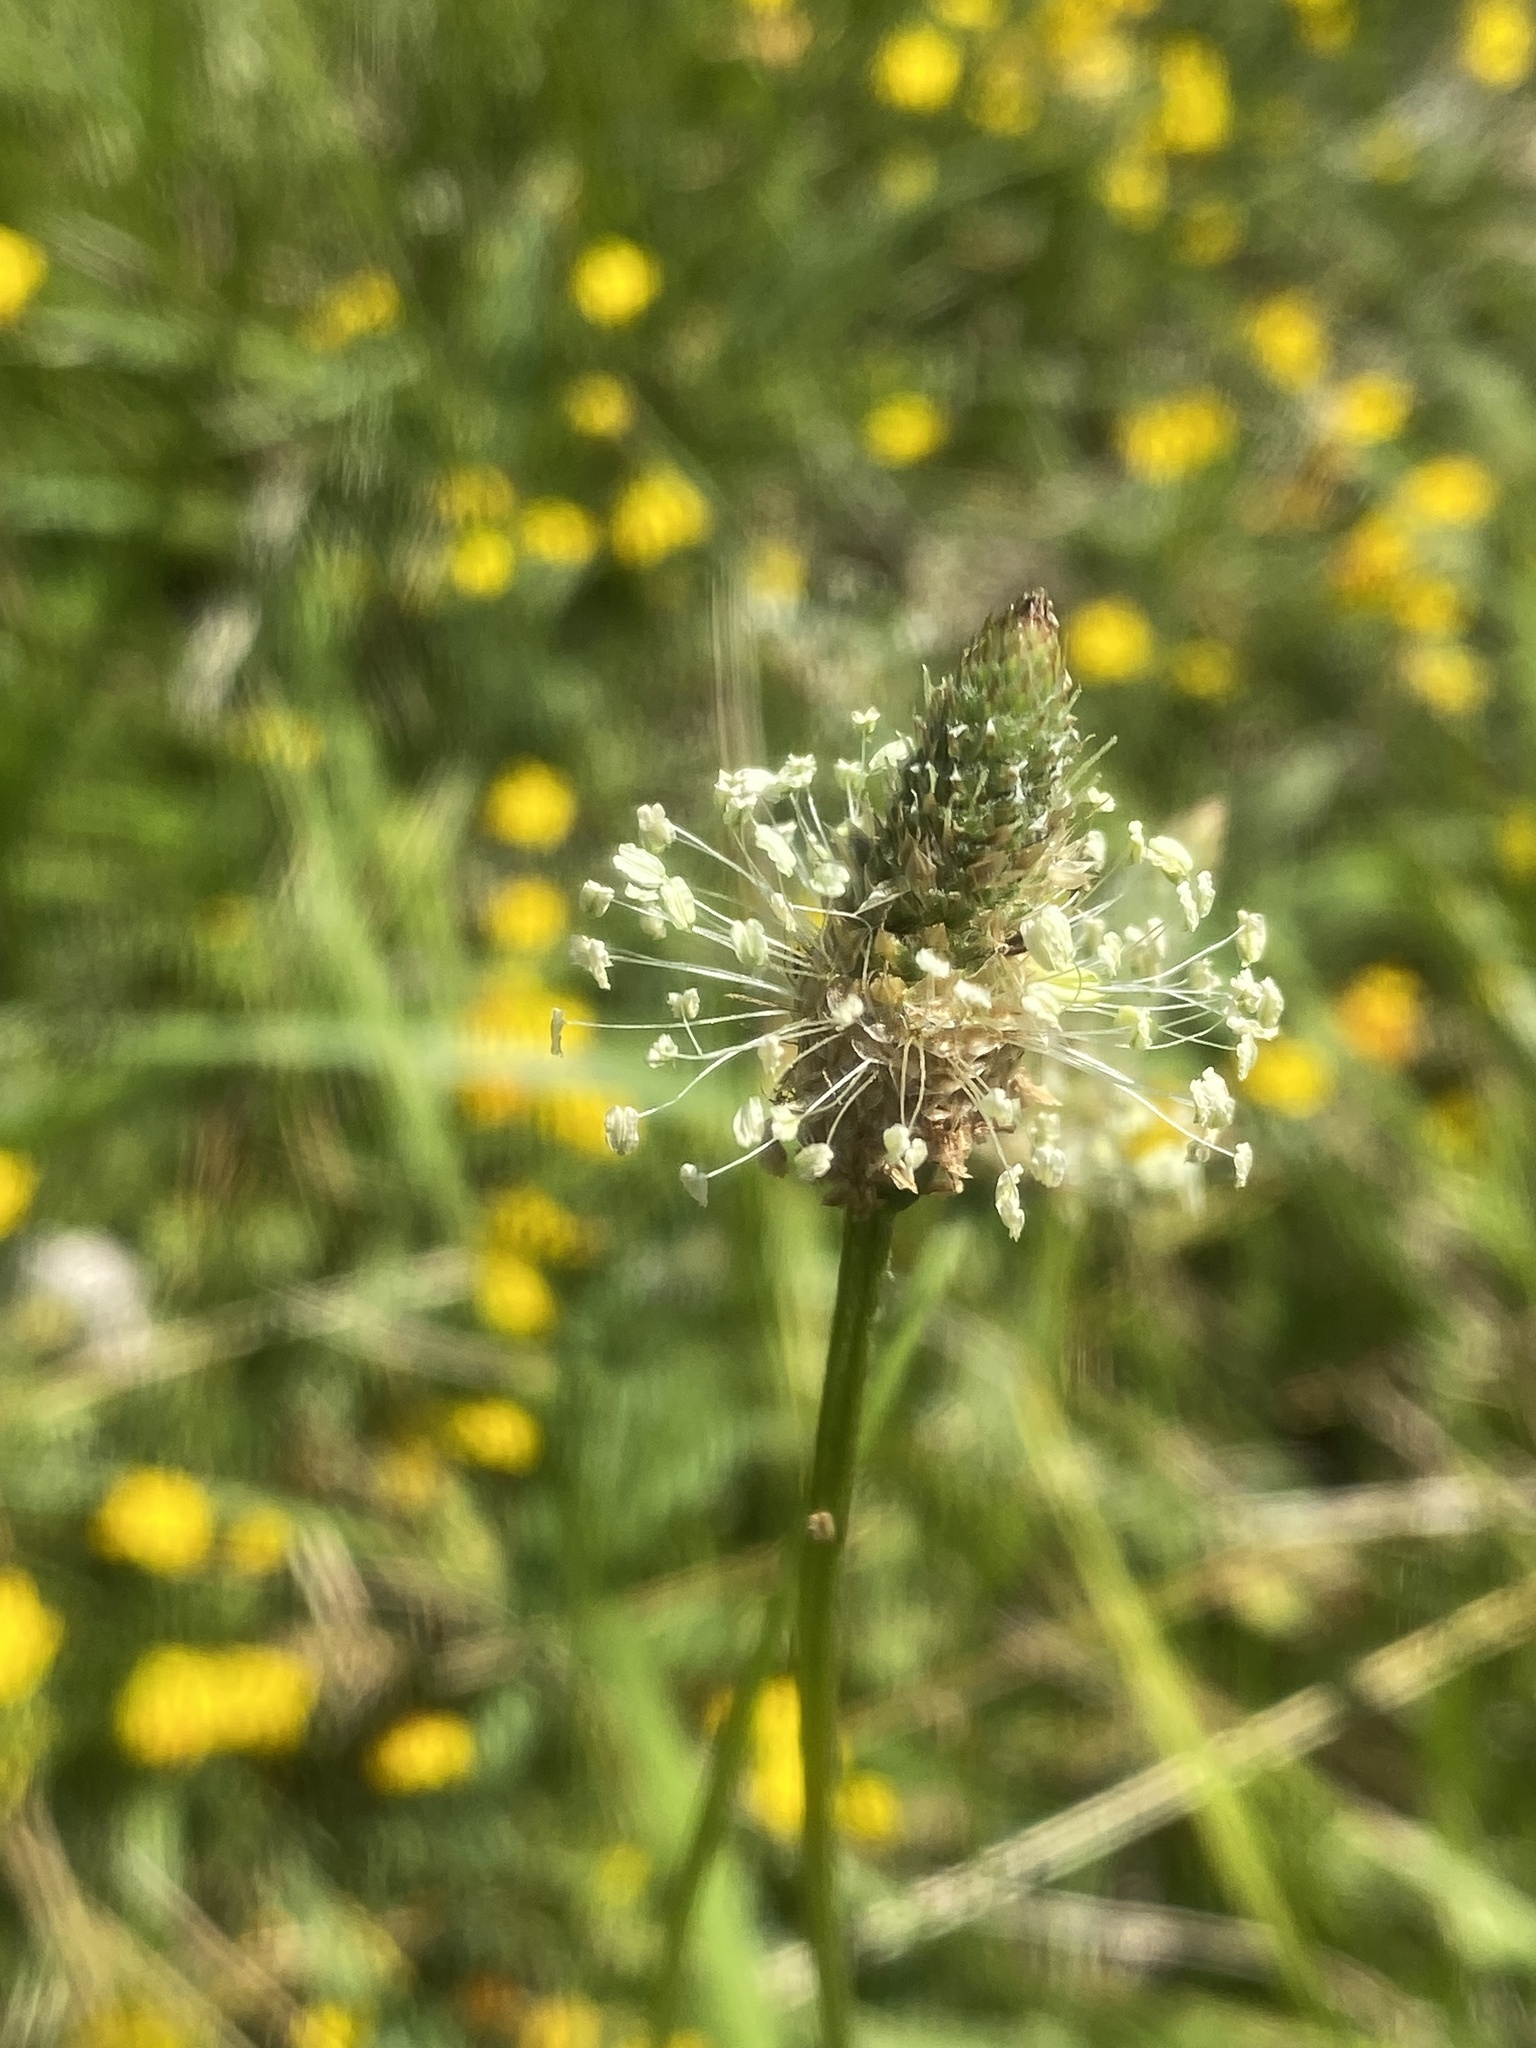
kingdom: Plantae
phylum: Tracheophyta
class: Magnoliopsida
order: Lamiales
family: Plantaginaceae
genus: Plantago
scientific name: Plantago lanceolata
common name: Ribwort plantain
